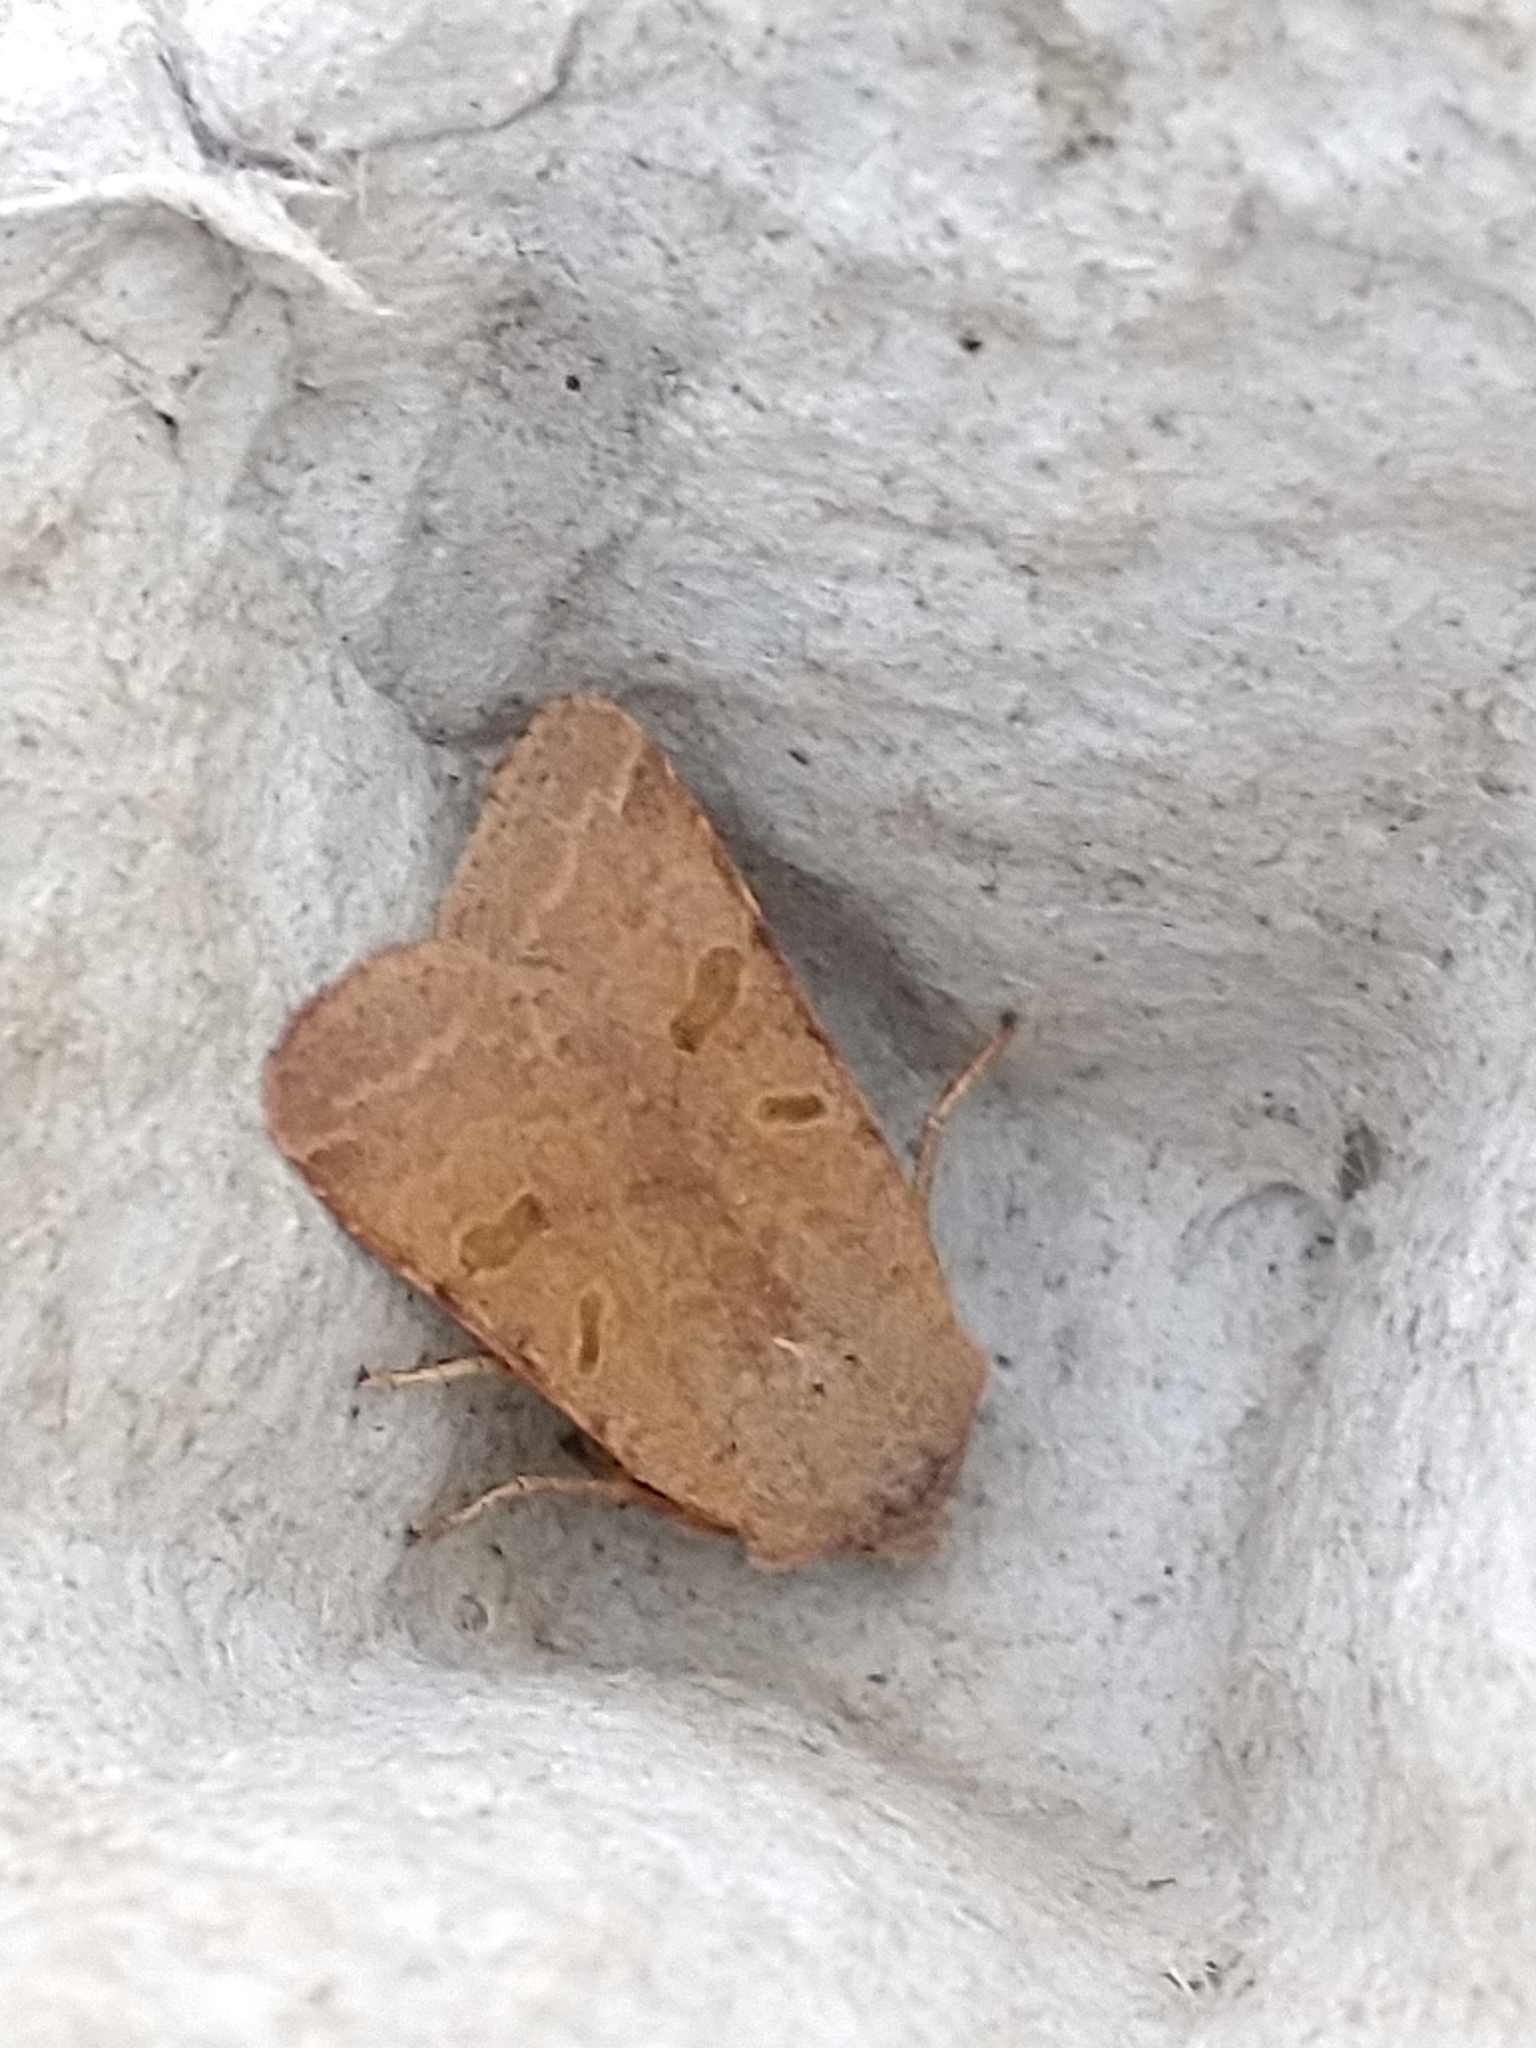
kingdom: Animalia
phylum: Arthropoda
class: Insecta
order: Lepidoptera
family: Noctuidae
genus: Agrochola
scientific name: Agrochola lychnidis
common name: Beaded chestnut
